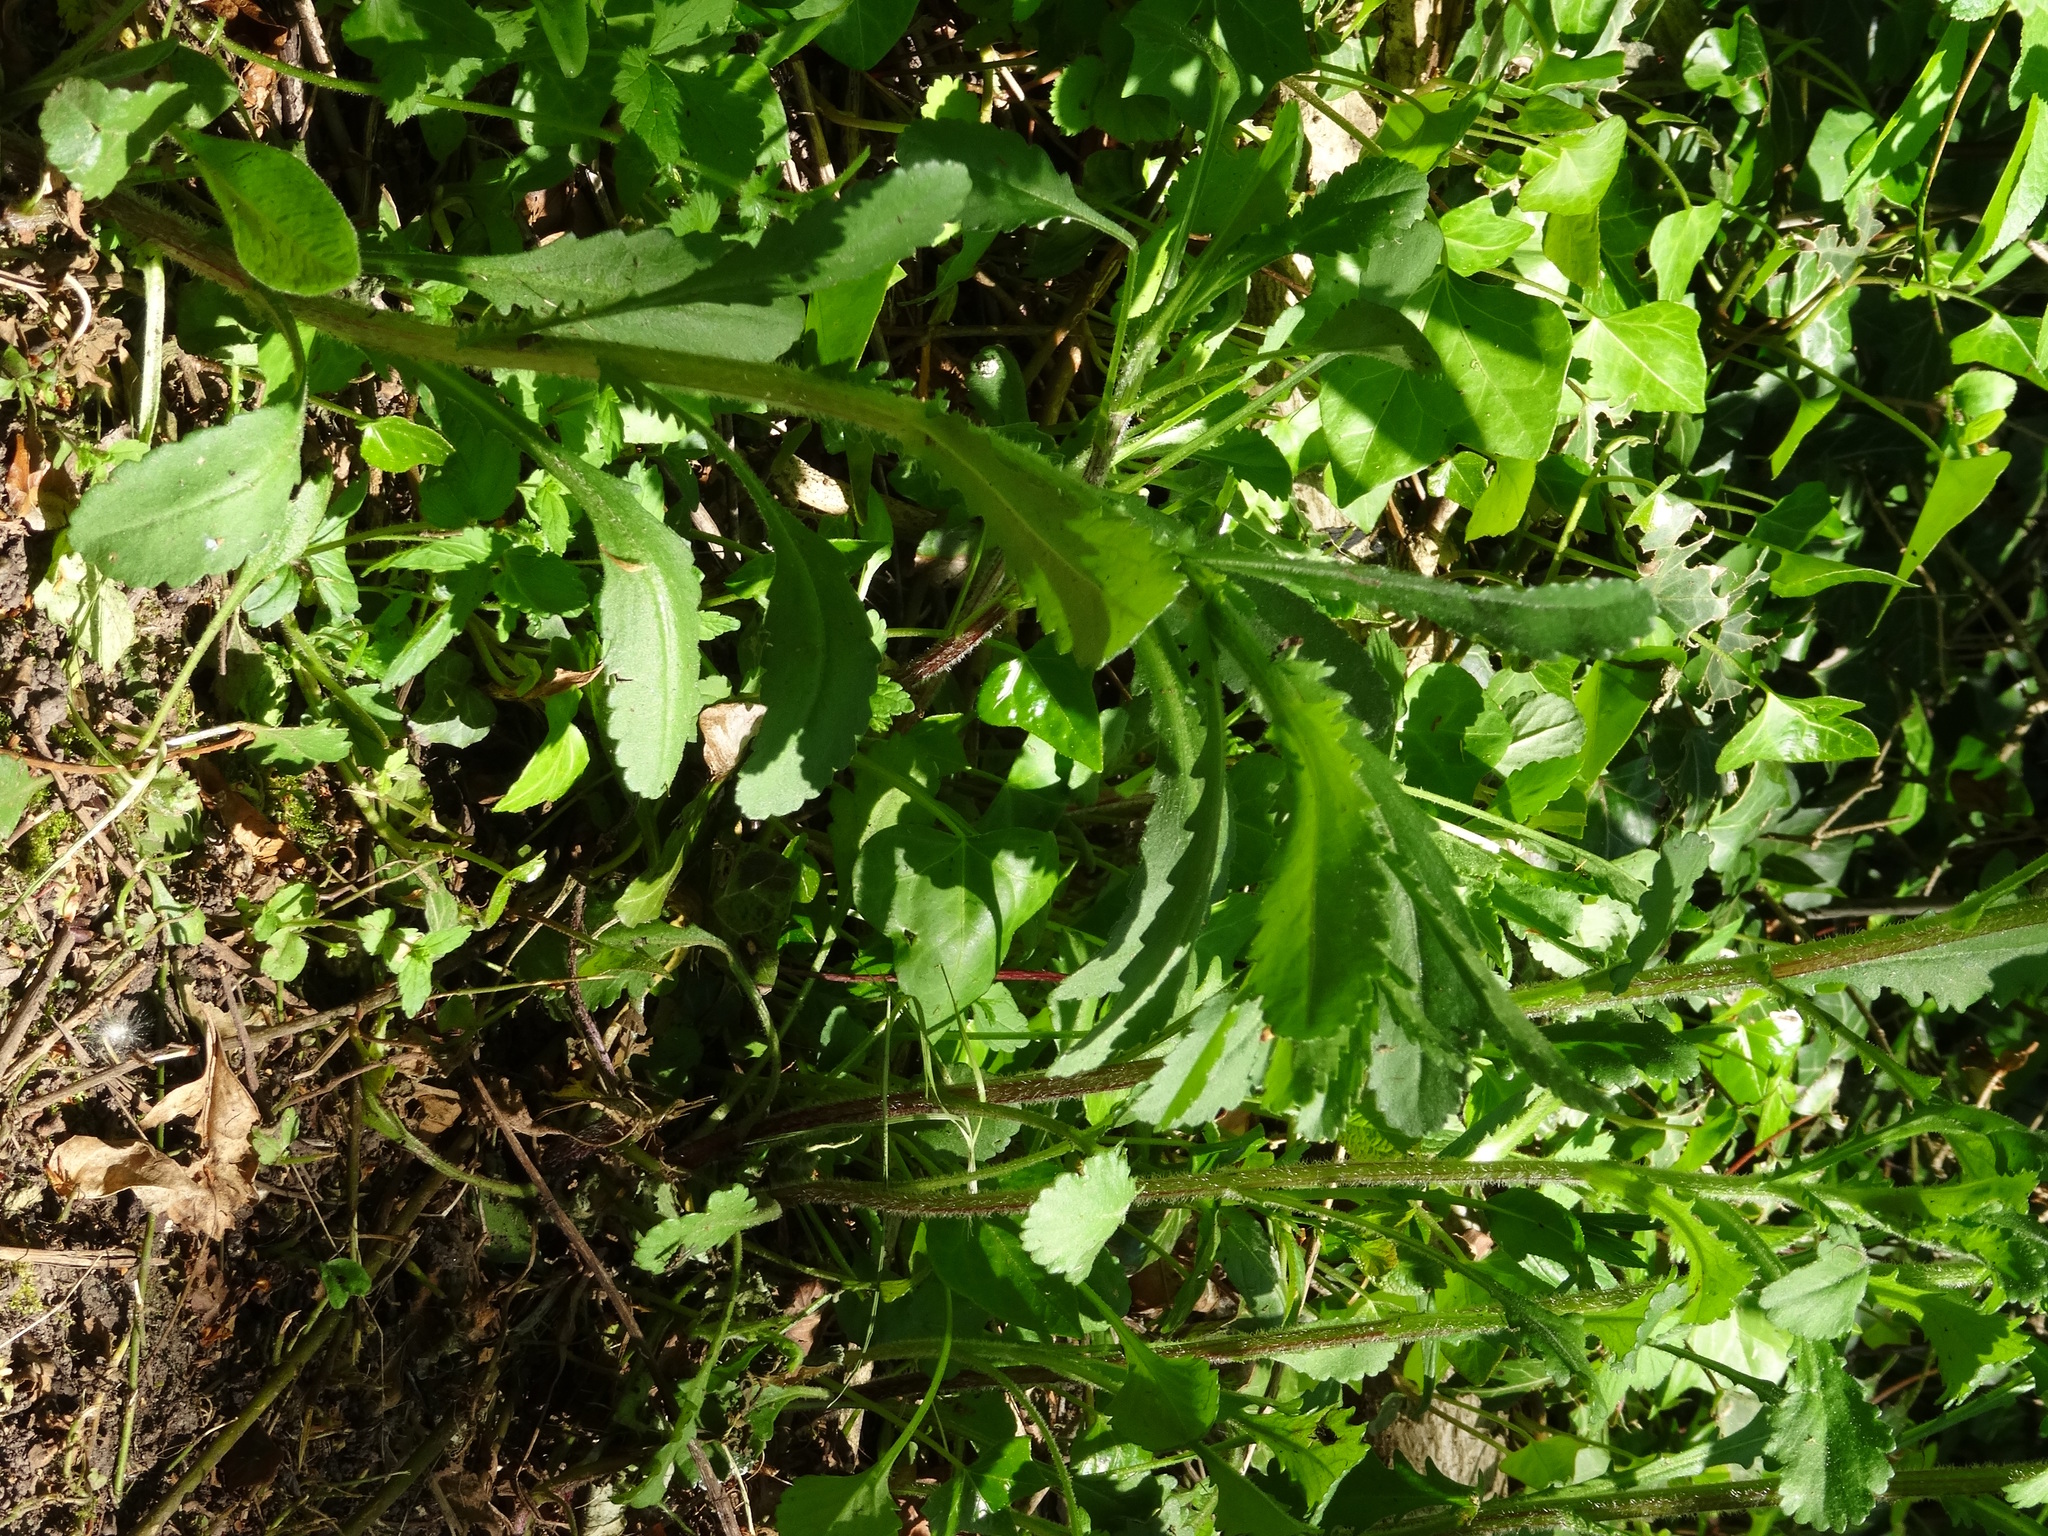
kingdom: Plantae
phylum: Tracheophyta
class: Magnoliopsida
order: Asterales
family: Asteraceae
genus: Leucanthemum
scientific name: Leucanthemum vulgare
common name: Oxeye daisy
